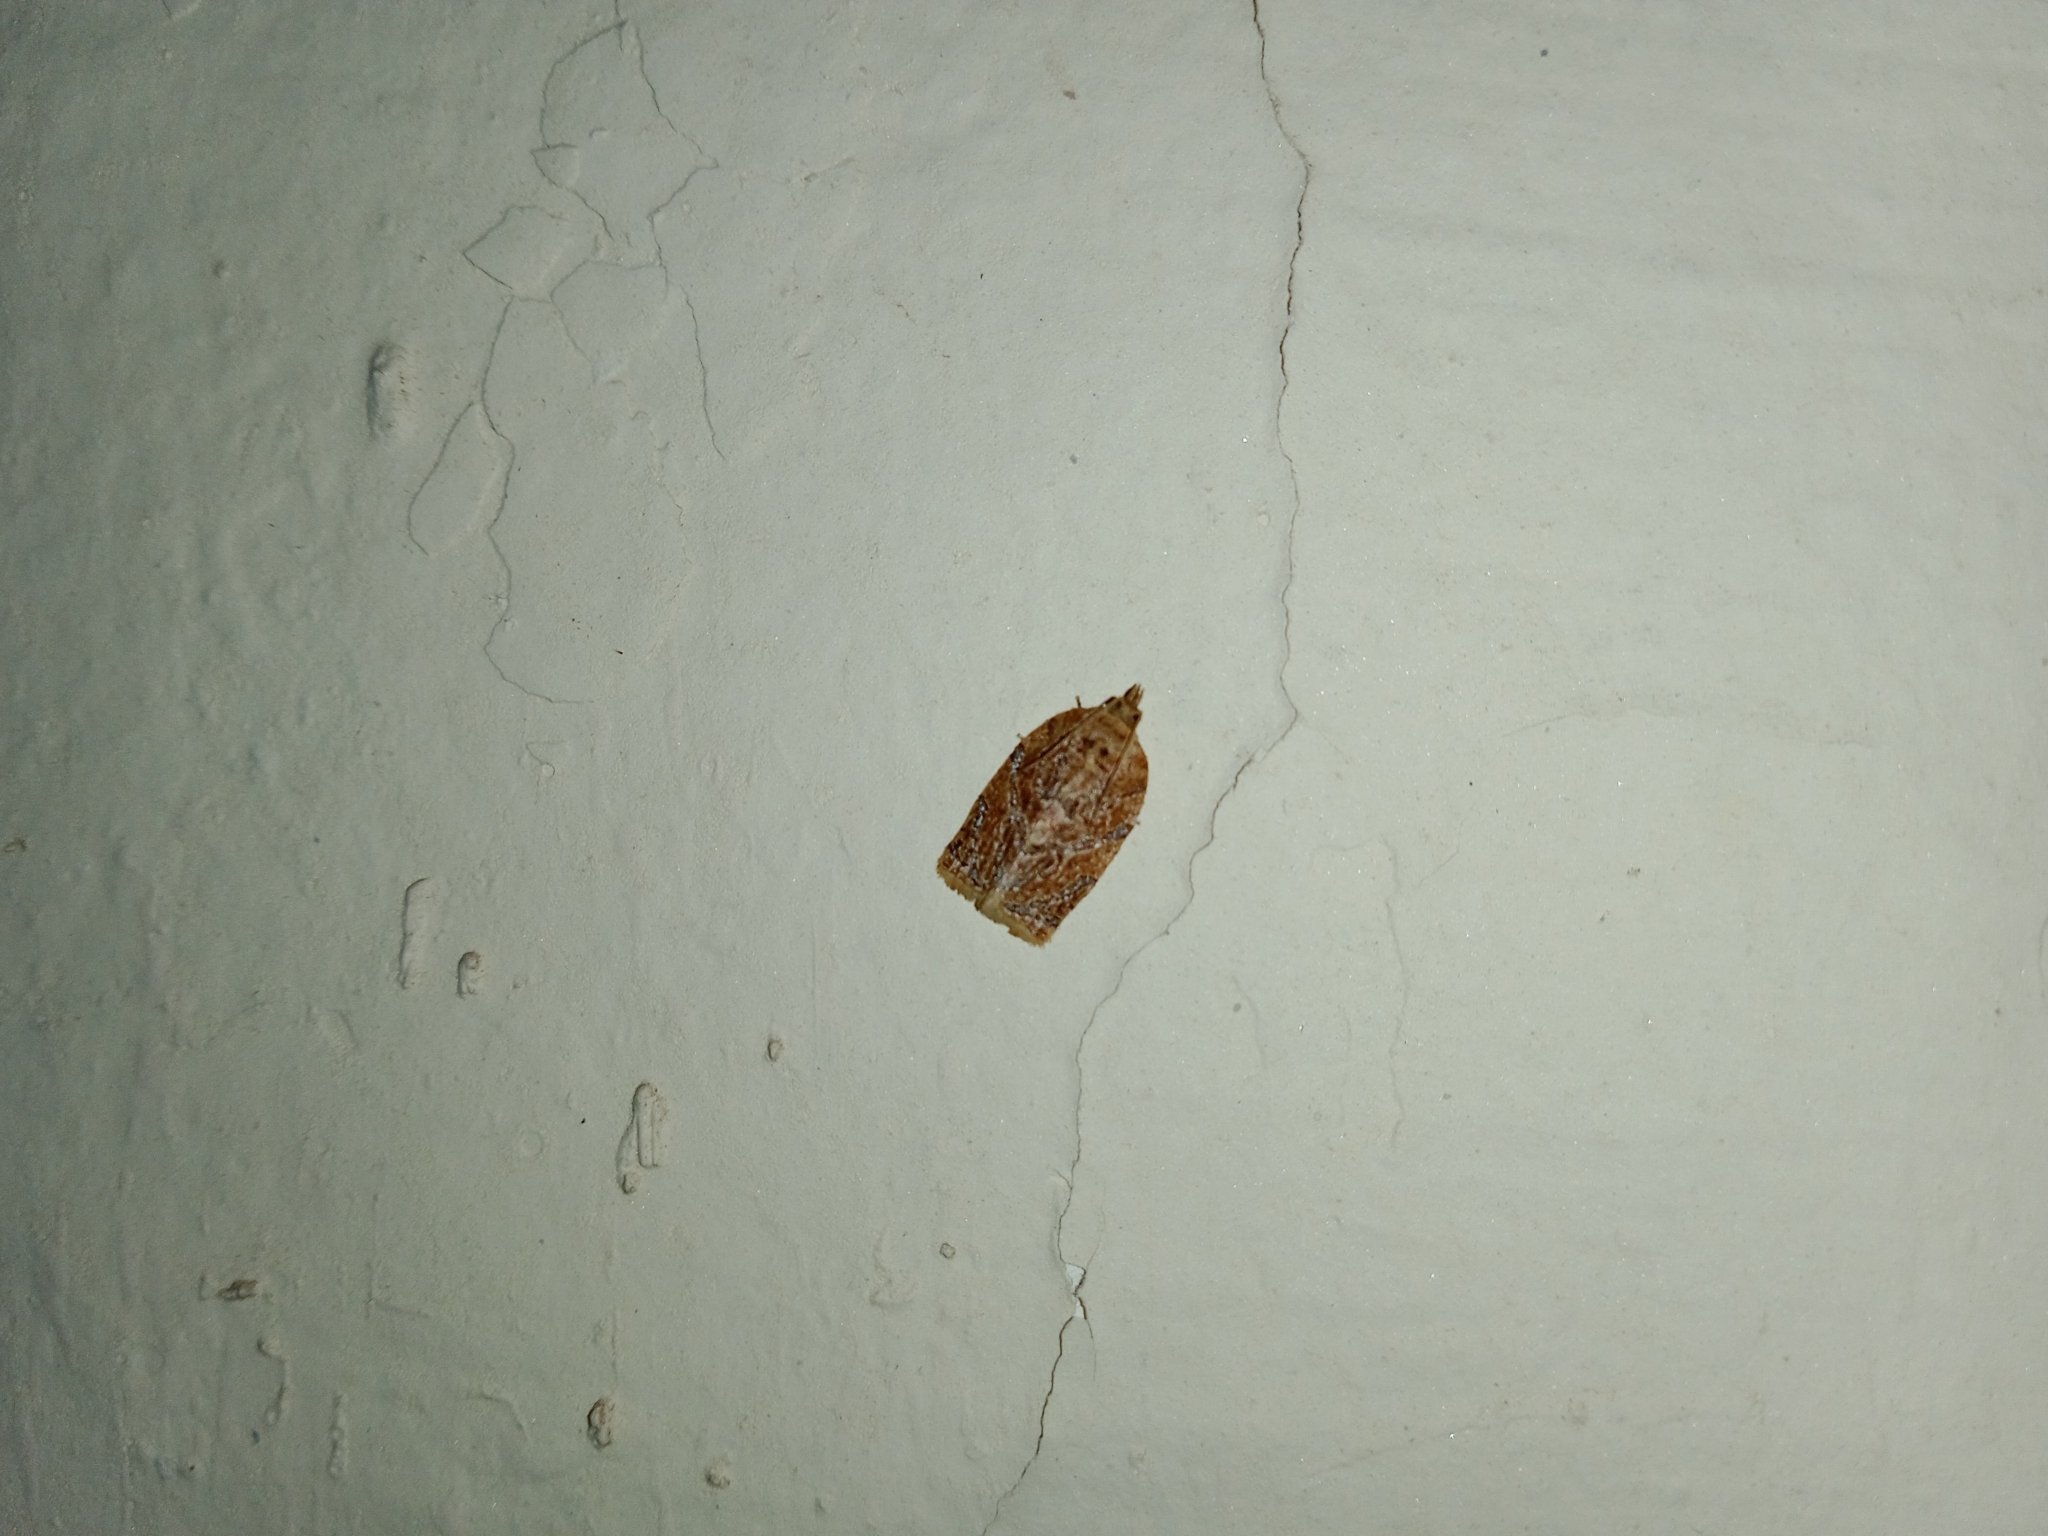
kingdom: Animalia
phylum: Arthropoda
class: Insecta
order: Lepidoptera
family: Tortricidae
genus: Adoxophyes
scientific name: Adoxophyes privatana
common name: Asian orchid tortrix
